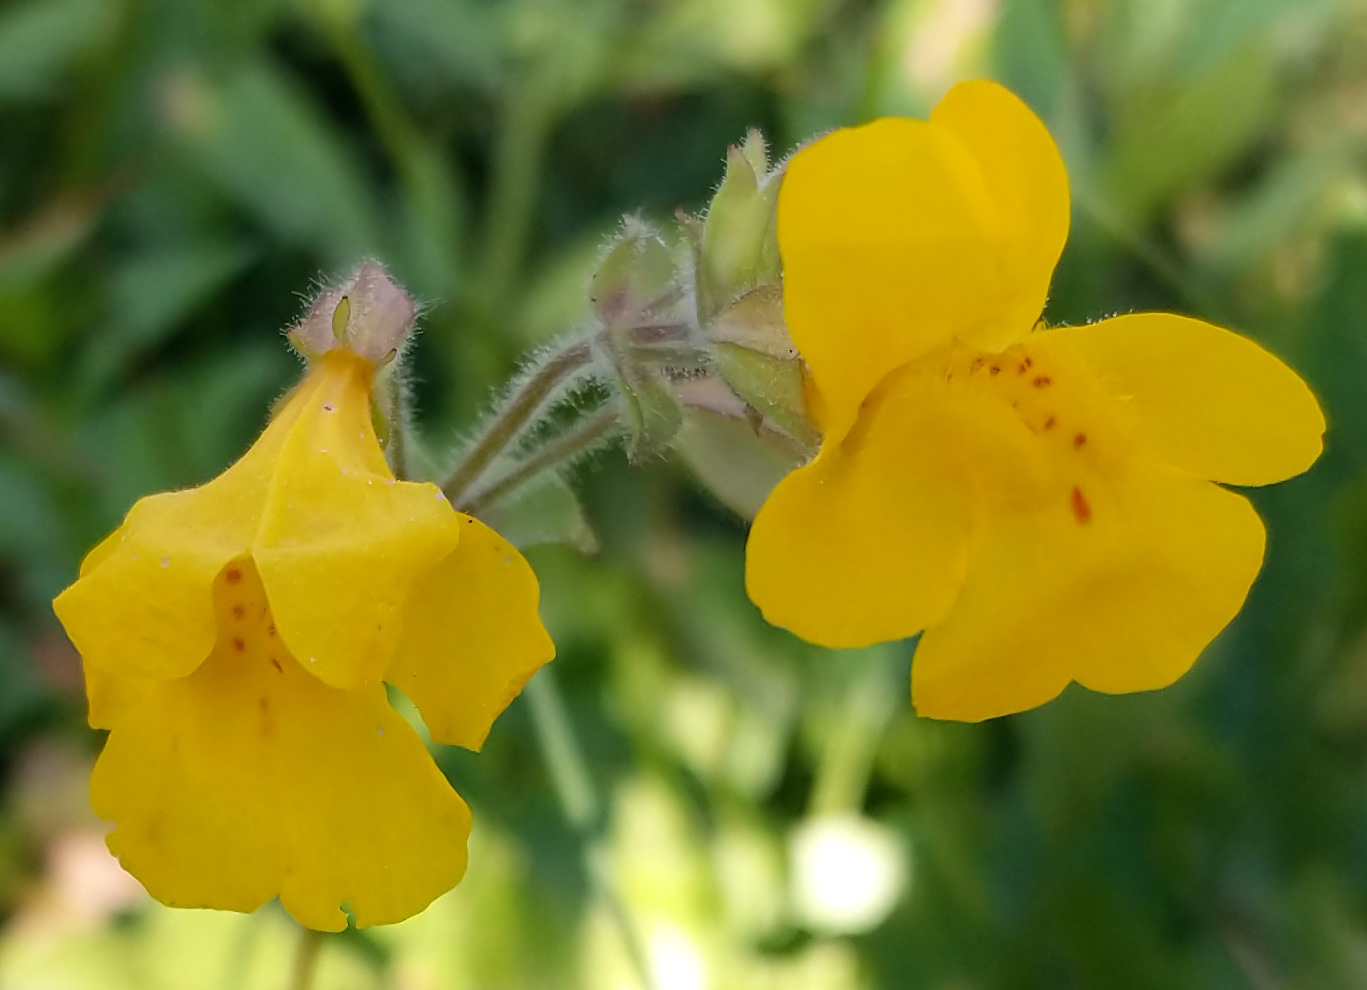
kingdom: Plantae
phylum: Tracheophyta
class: Magnoliopsida
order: Lamiales
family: Phrymaceae
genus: Erythranthe
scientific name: Erythranthe guttata
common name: Monkeyflower
